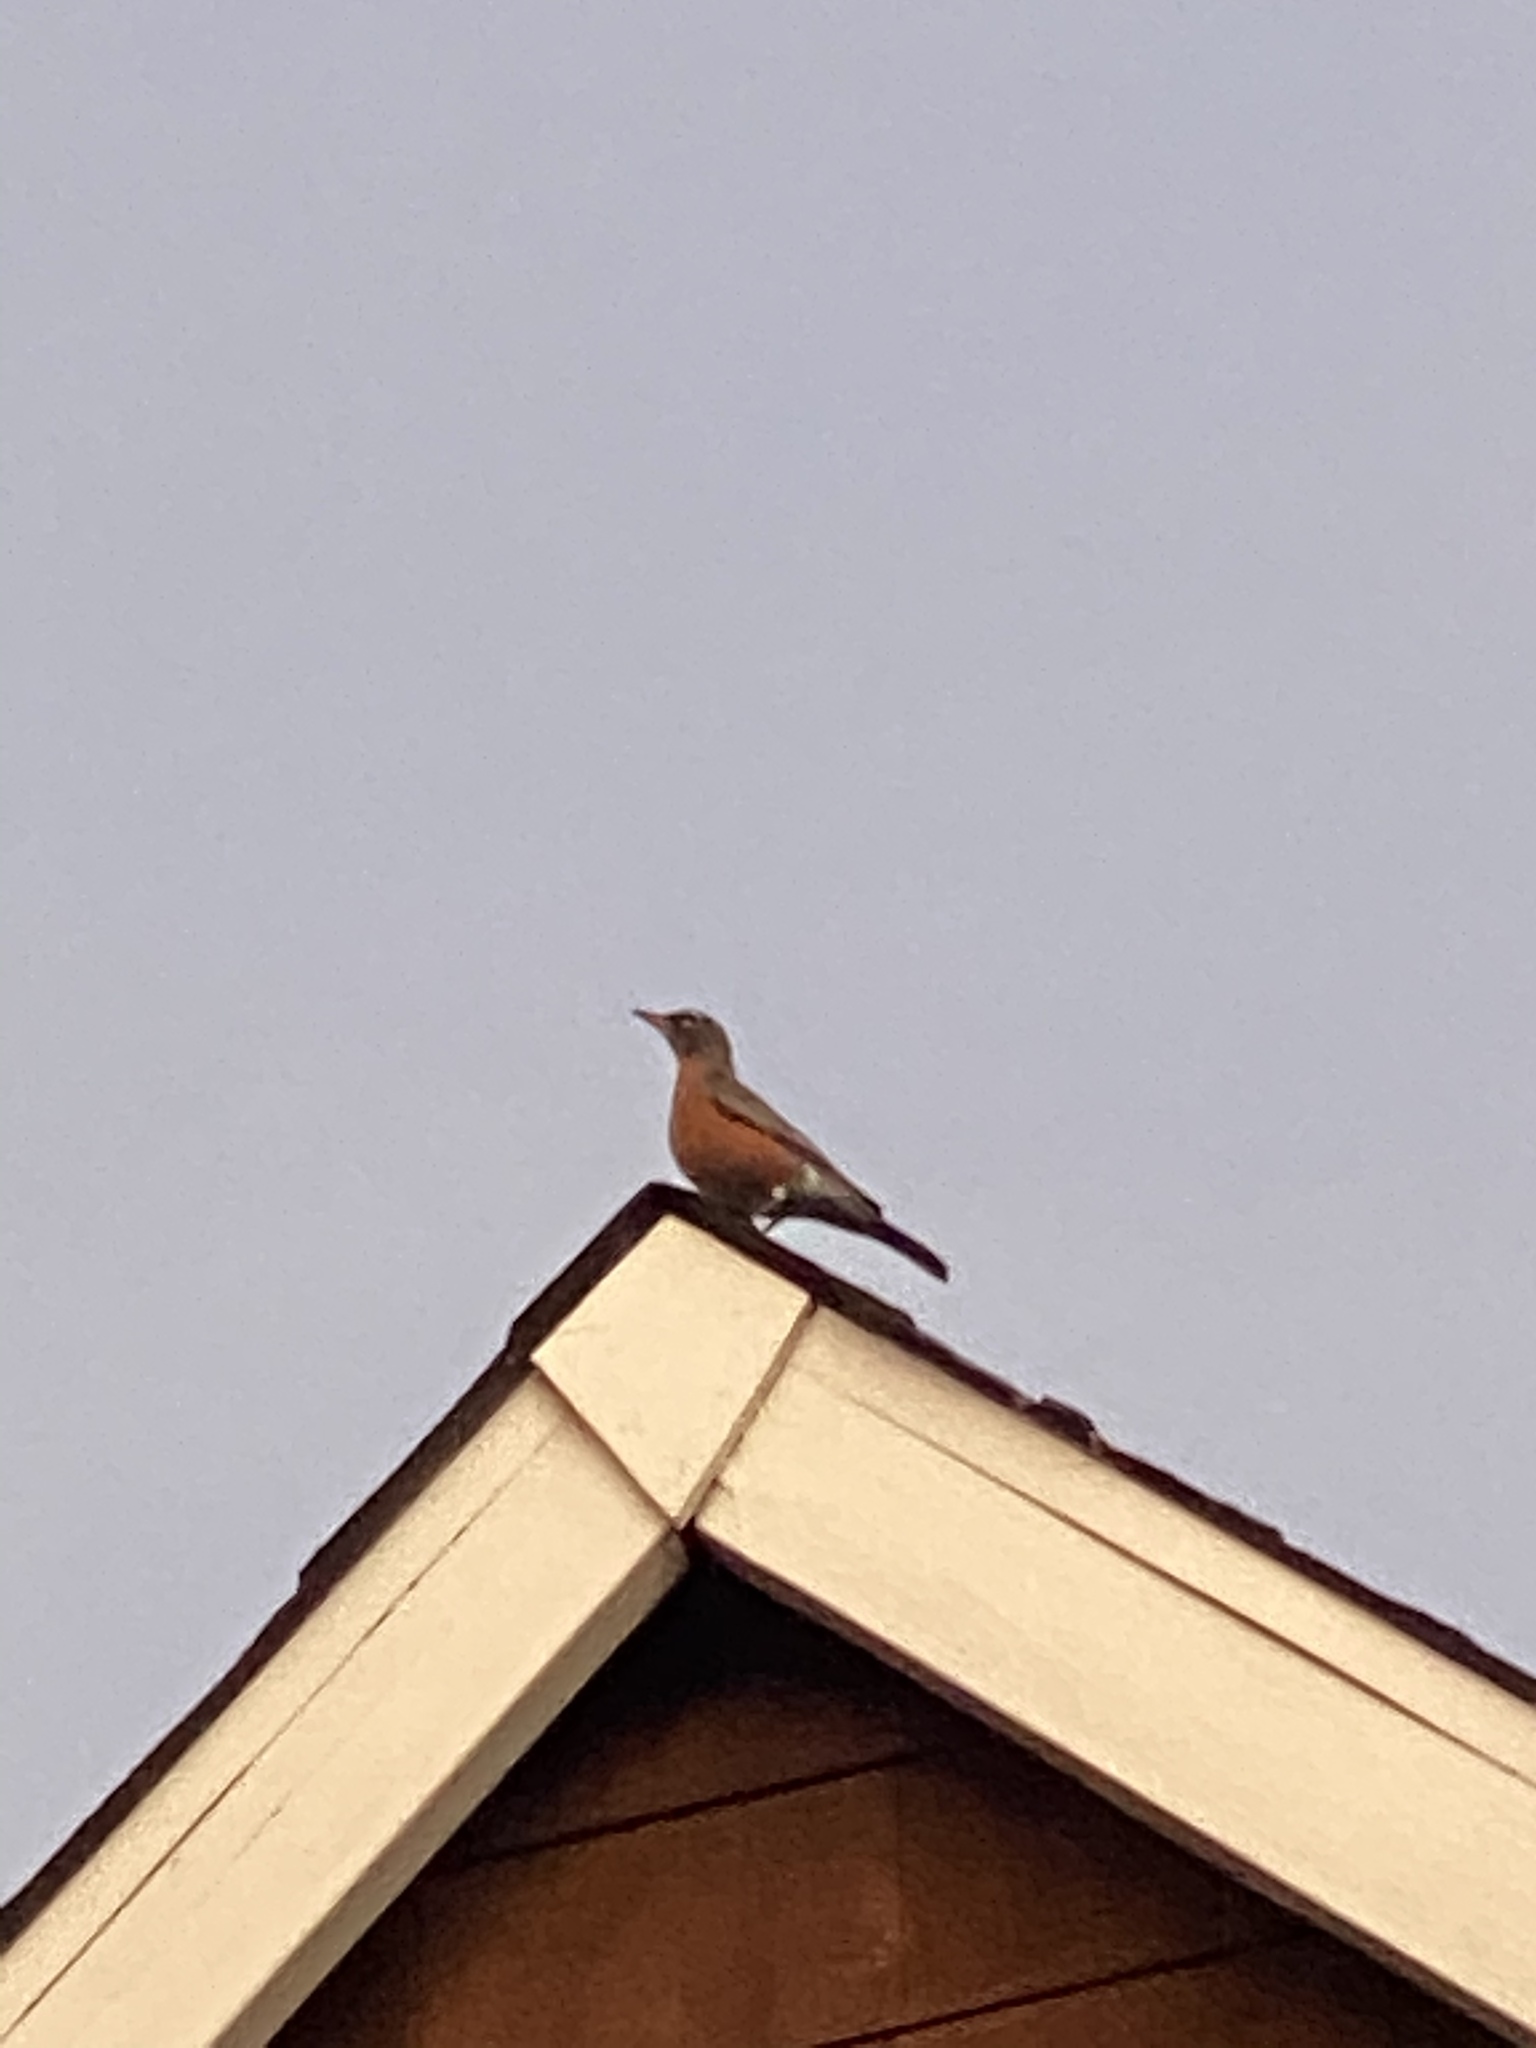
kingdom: Animalia
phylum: Chordata
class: Aves
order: Passeriformes
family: Turdidae
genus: Turdus
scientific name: Turdus migratorius
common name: American robin
